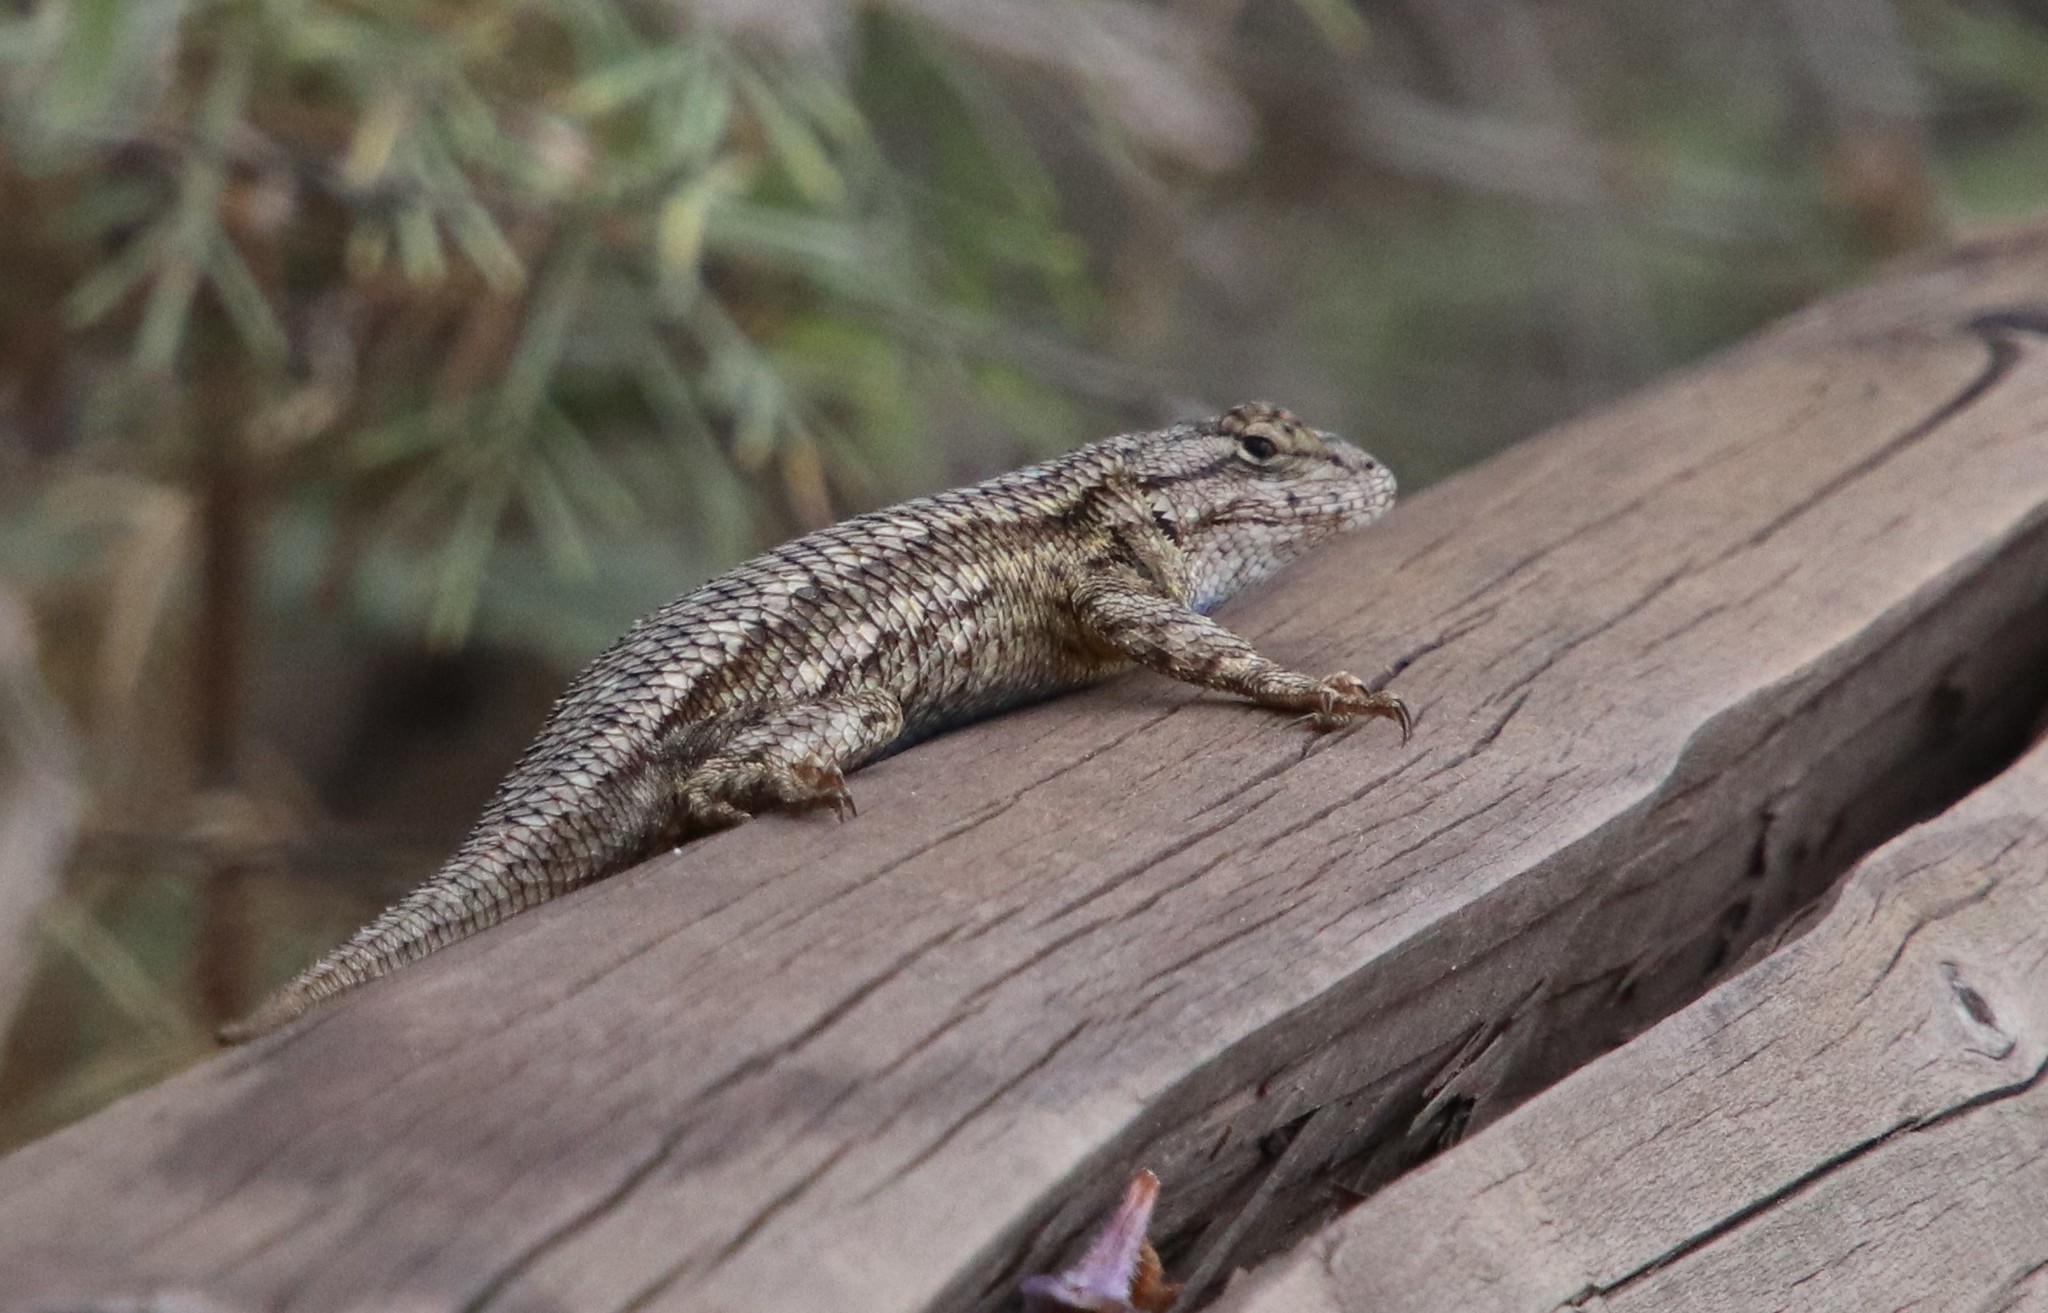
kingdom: Animalia
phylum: Chordata
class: Squamata
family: Phrynosomatidae
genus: Sceloporus
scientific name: Sceloporus occidentalis
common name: Western fence lizard
